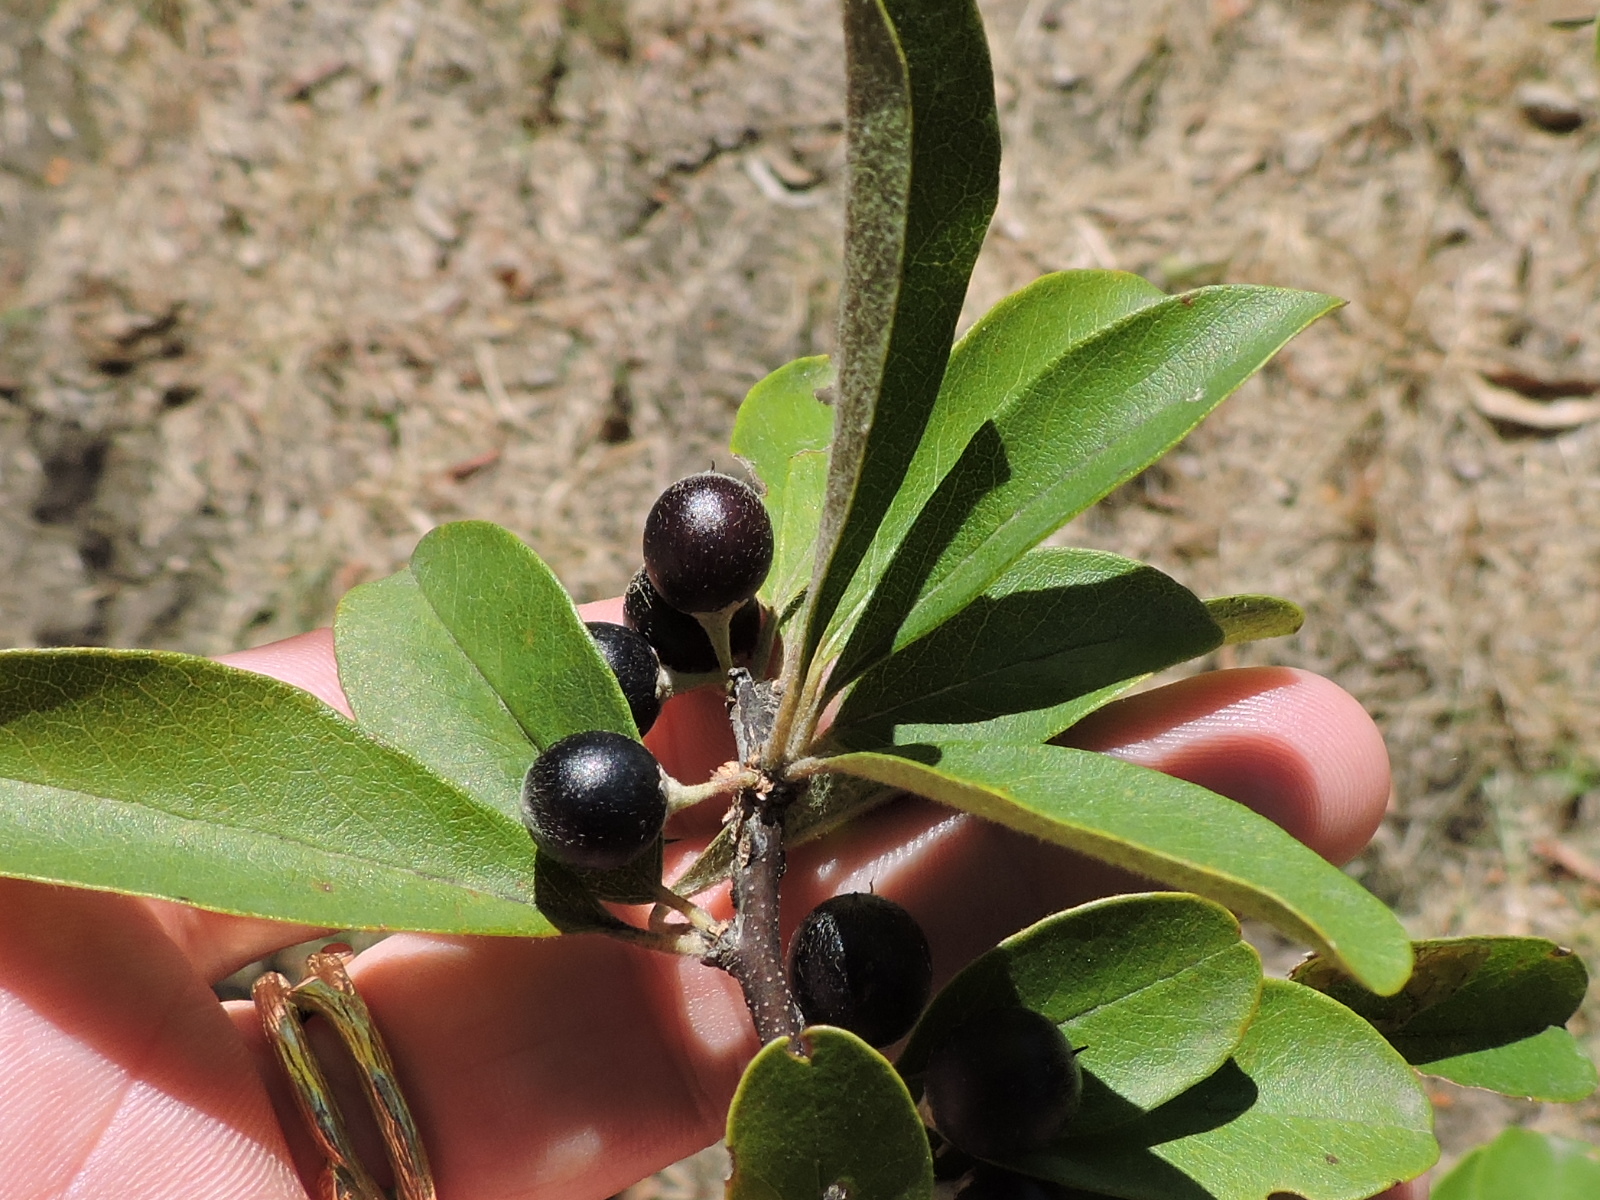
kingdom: Plantae
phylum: Tracheophyta
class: Magnoliopsida
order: Ericales
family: Sapotaceae
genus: Sideroxylon
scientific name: Sideroxylon lanuginosum
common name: Chittamwood
